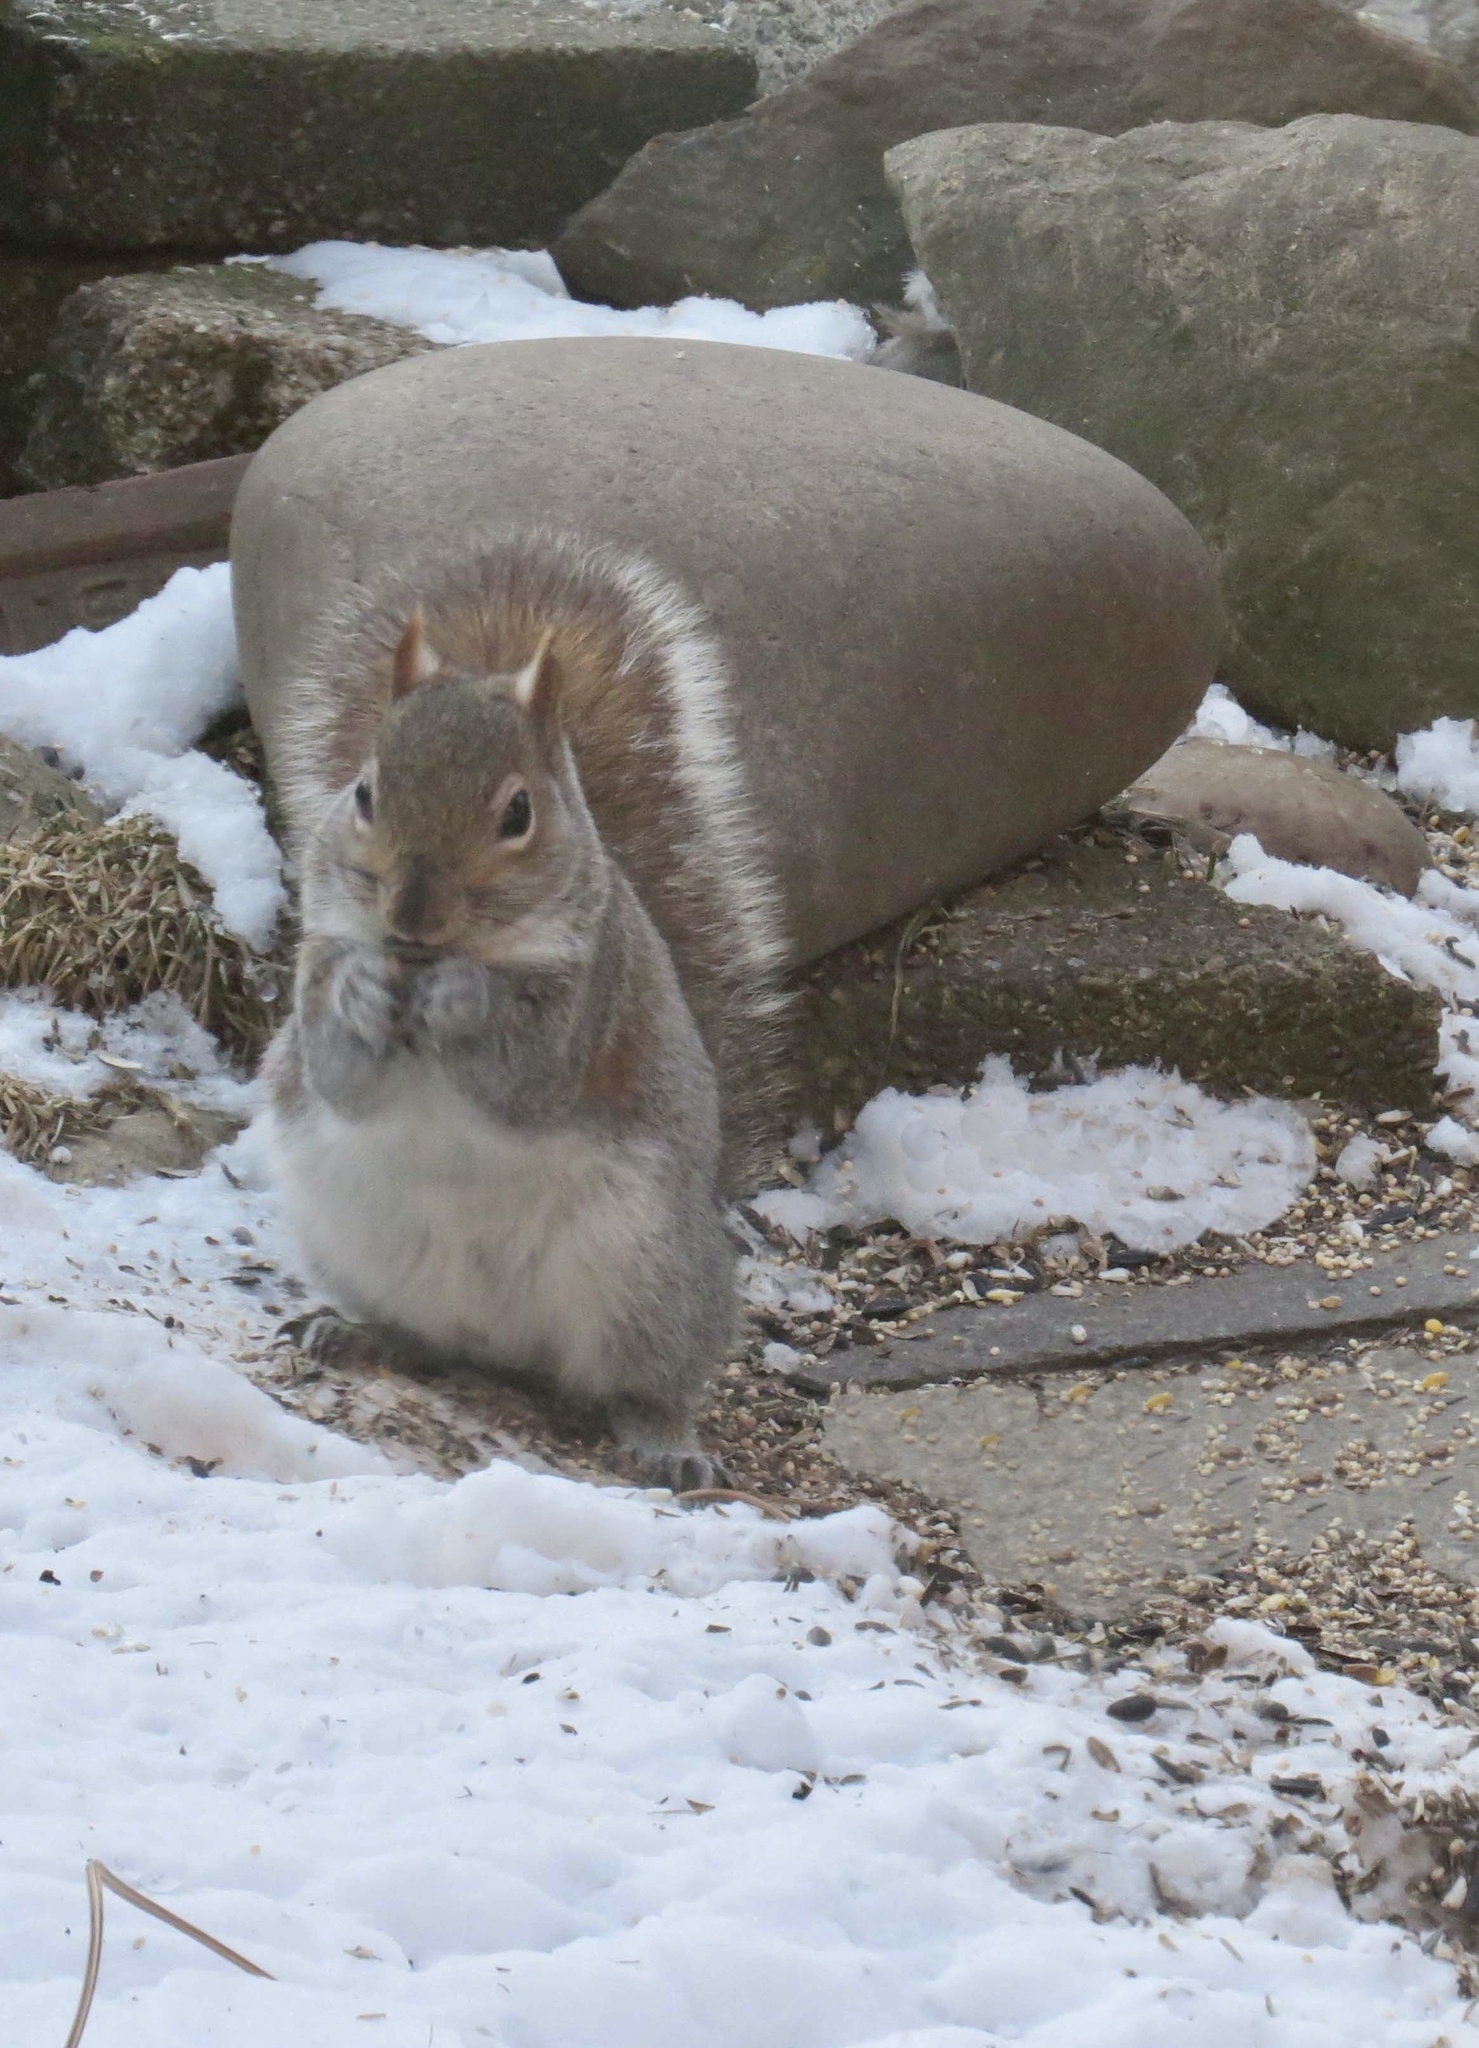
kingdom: Animalia
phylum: Chordata
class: Mammalia
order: Rodentia
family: Sciuridae
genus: Sciurus
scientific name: Sciurus carolinensis
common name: Eastern gray squirrel
